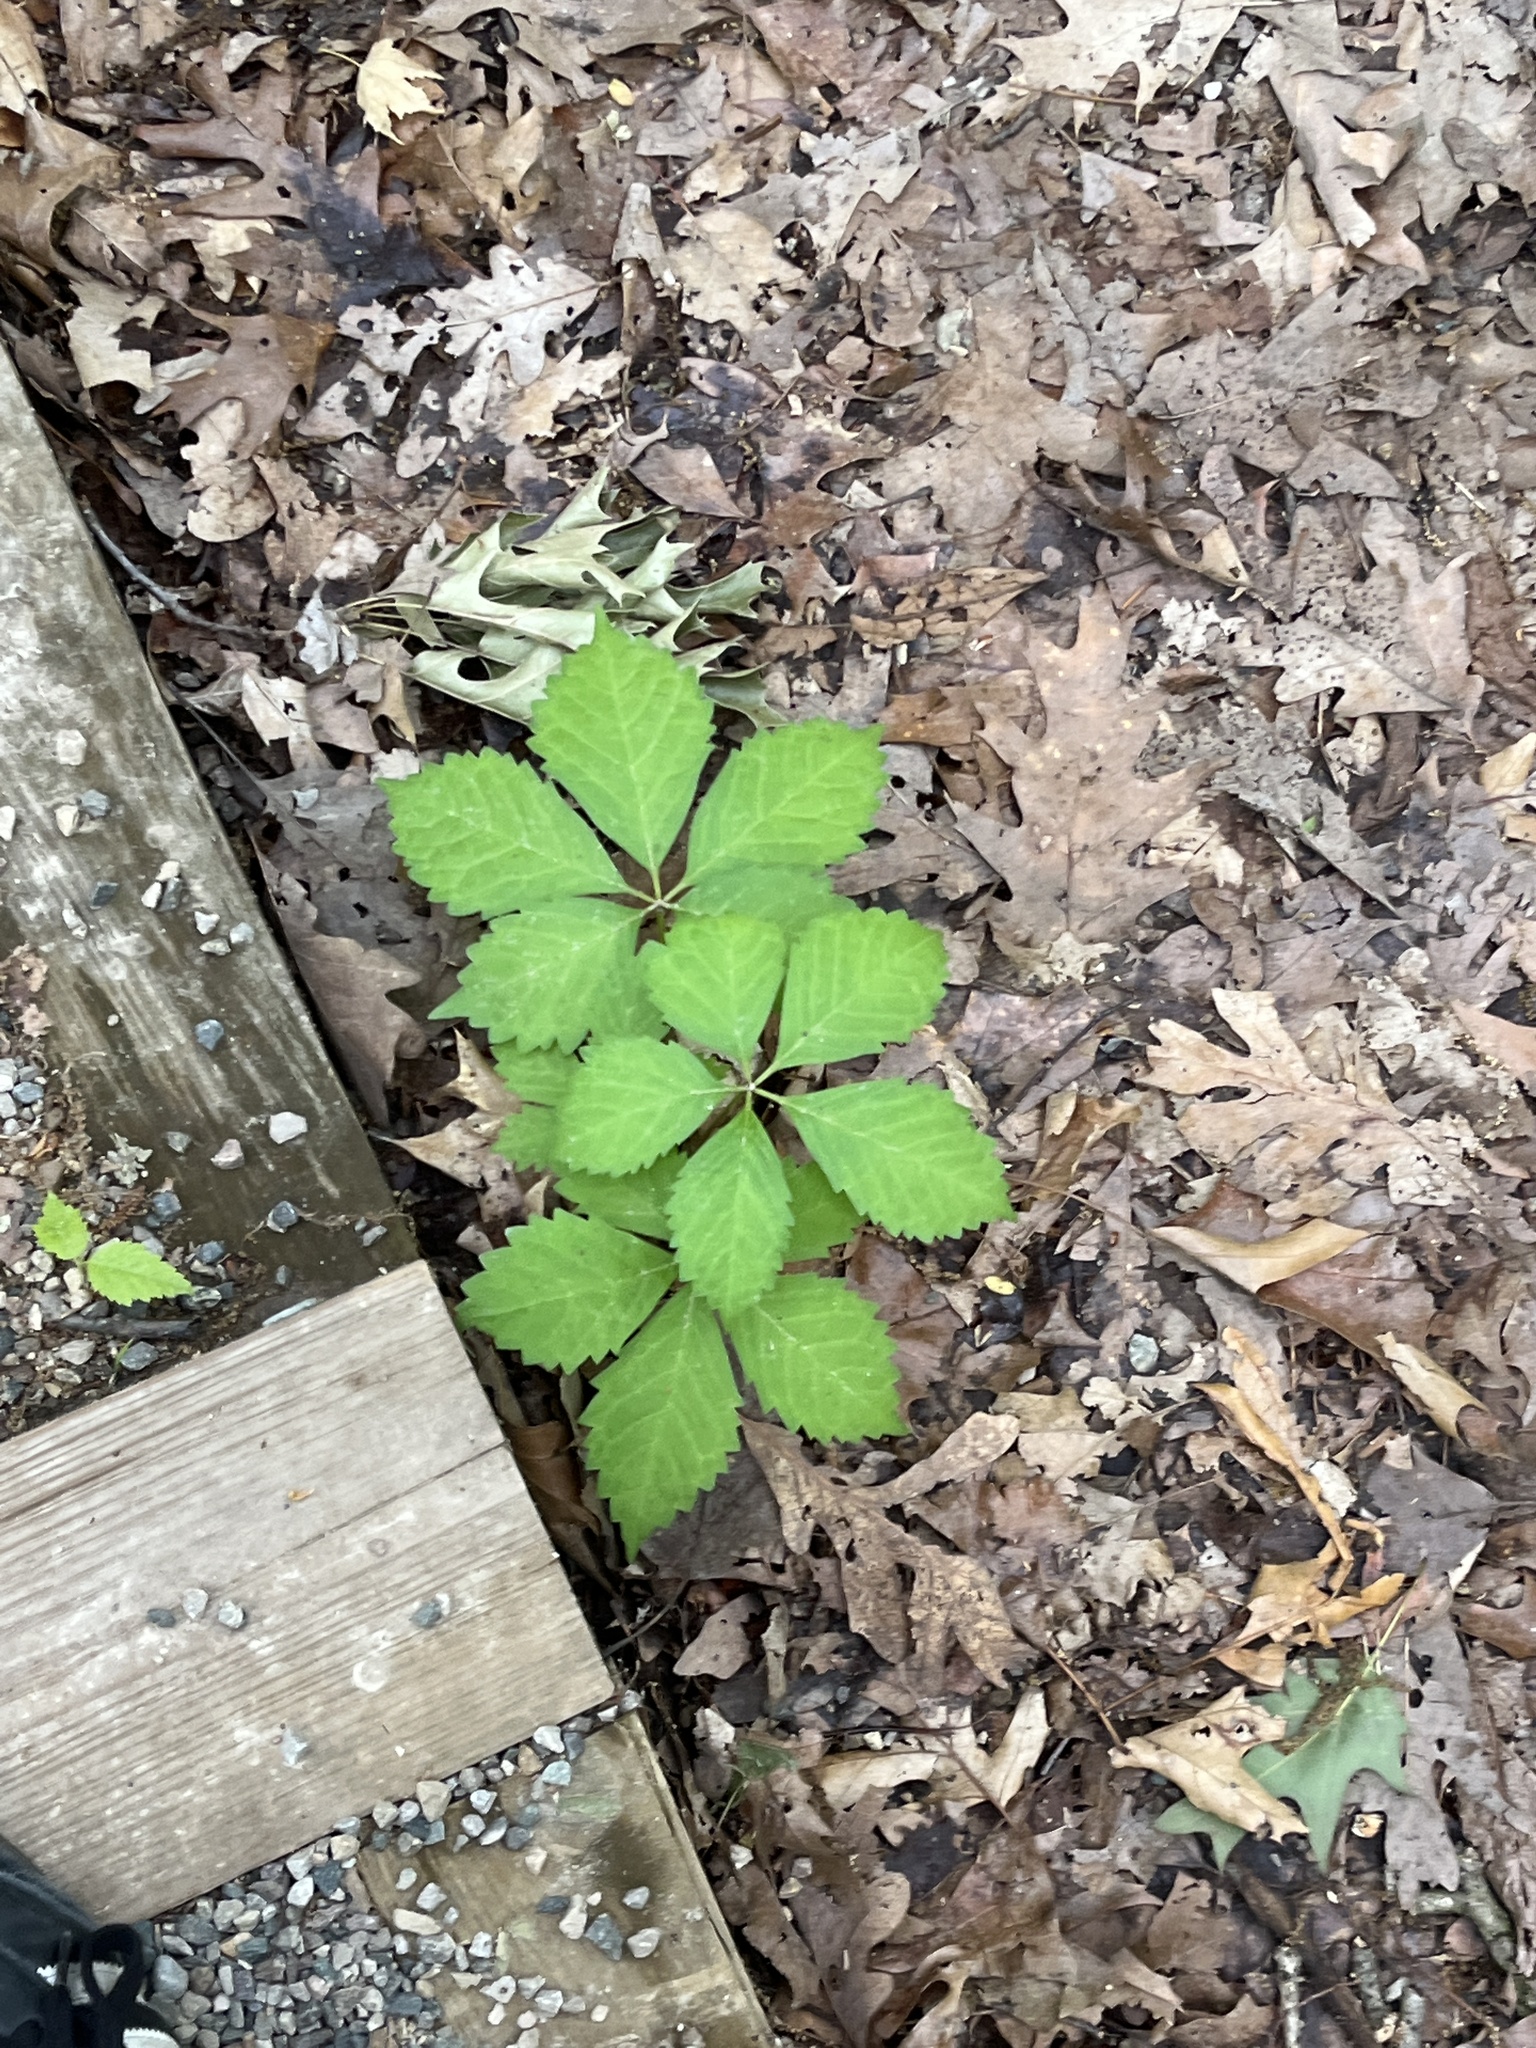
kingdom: Plantae
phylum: Tracheophyta
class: Magnoliopsida
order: Vitales
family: Vitaceae
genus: Parthenocissus
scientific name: Parthenocissus quinquefolia
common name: Virginia-creeper
